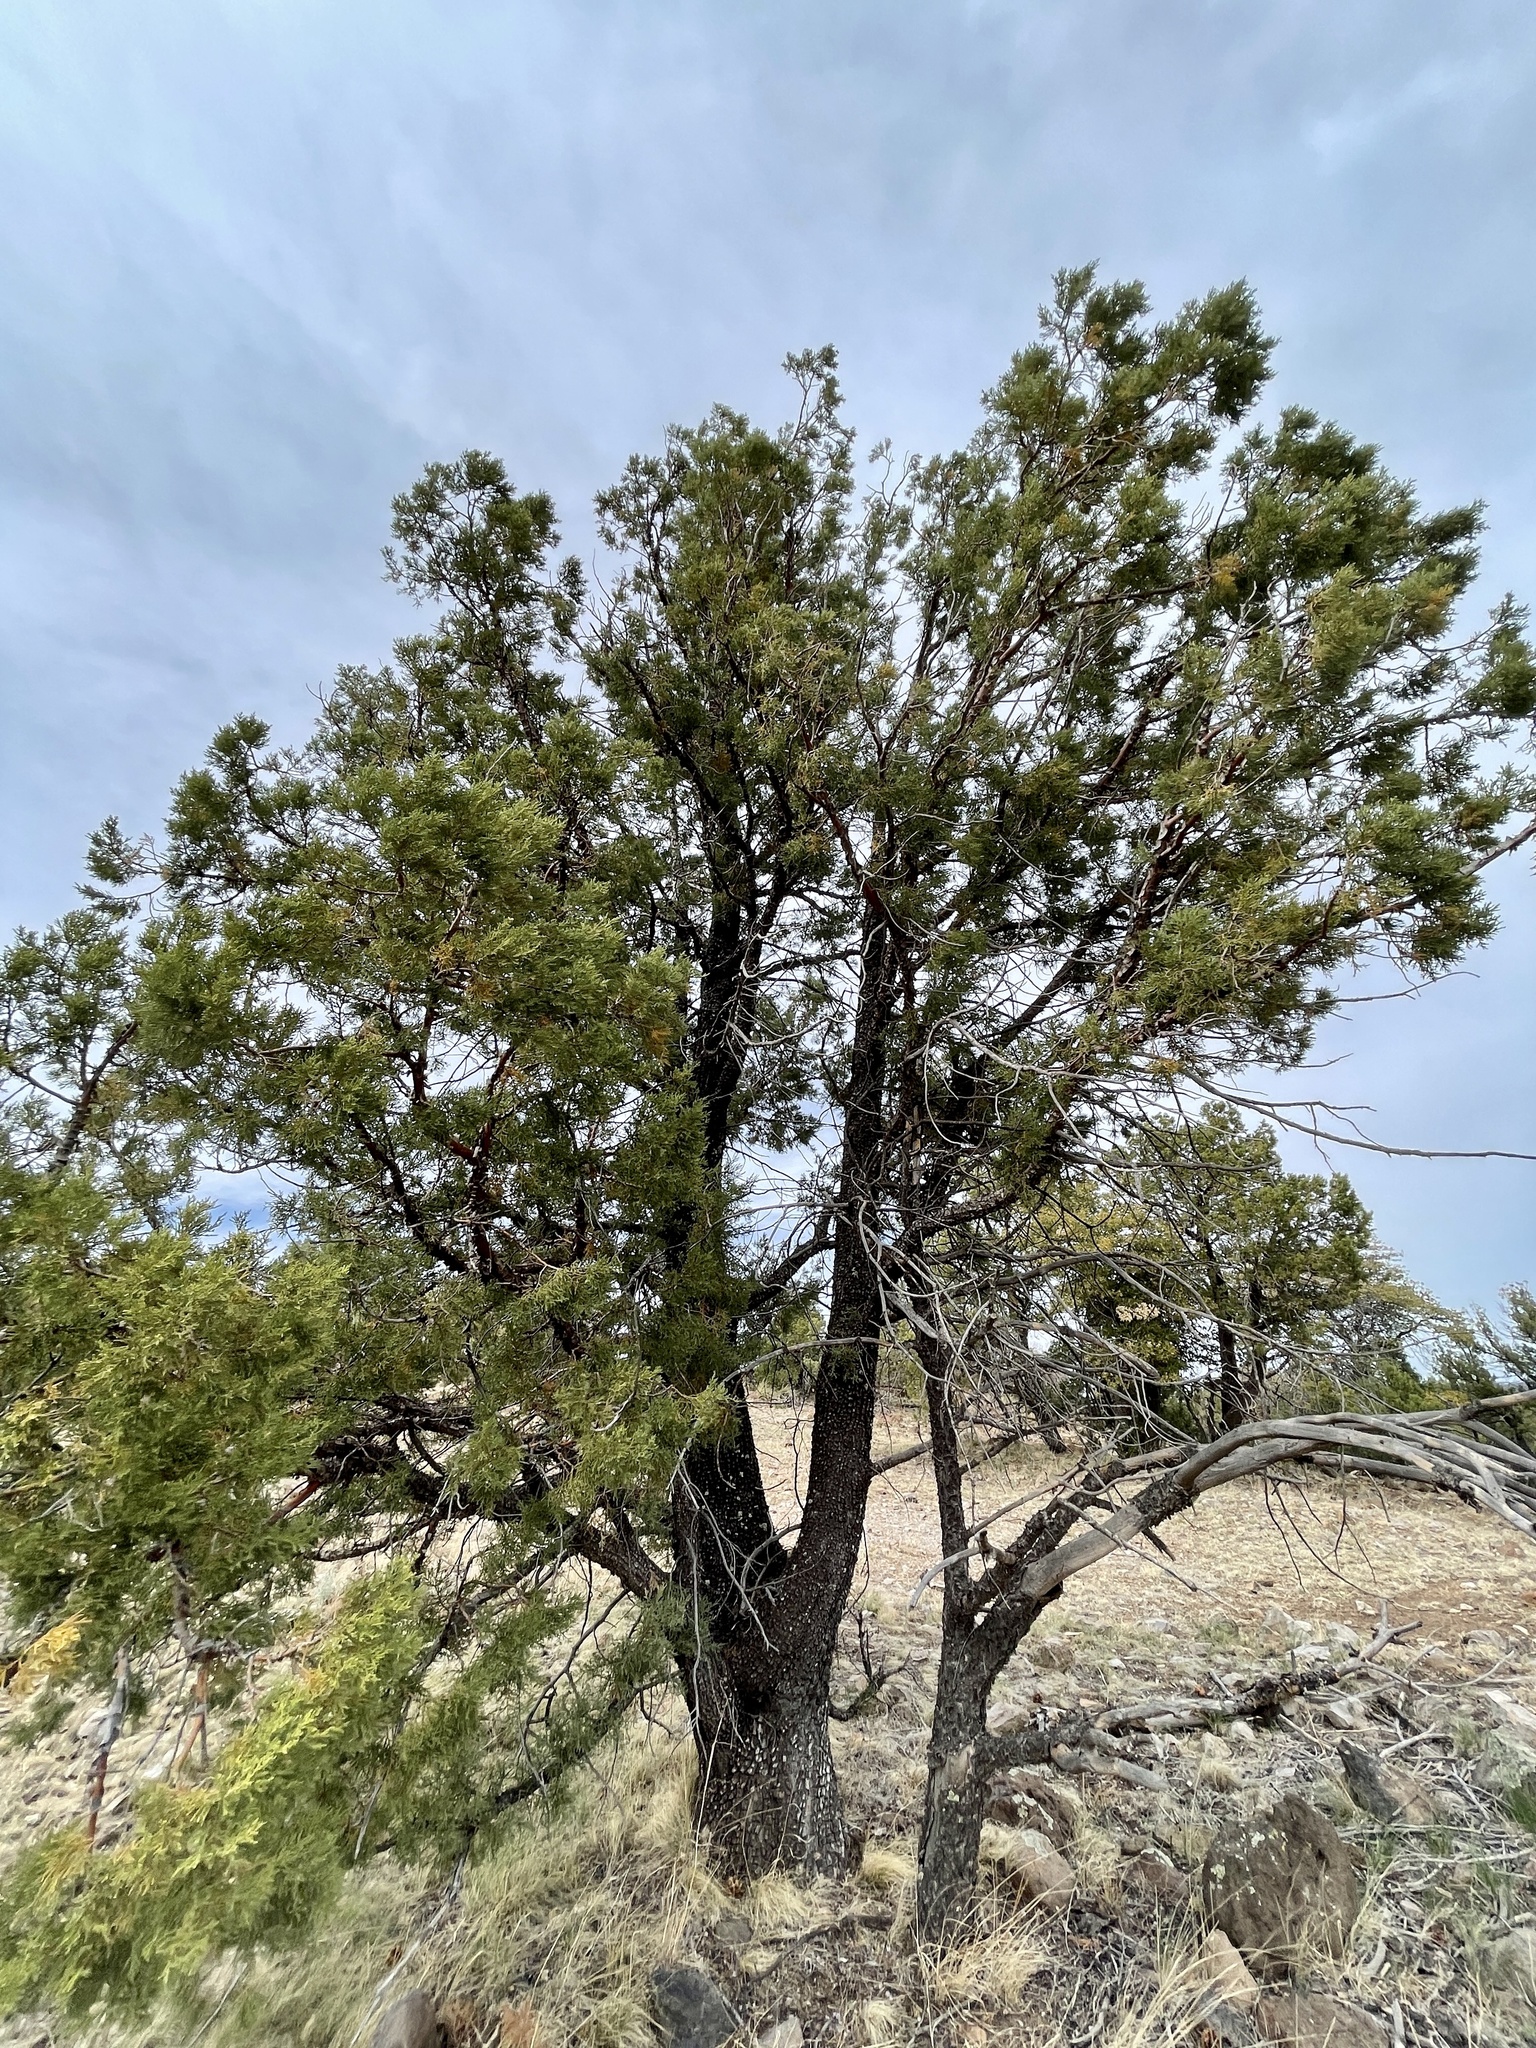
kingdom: Plantae
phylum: Tracheophyta
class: Pinopsida
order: Pinales
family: Cupressaceae
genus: Juniperus
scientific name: Juniperus deppeana
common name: Alligator juniper
